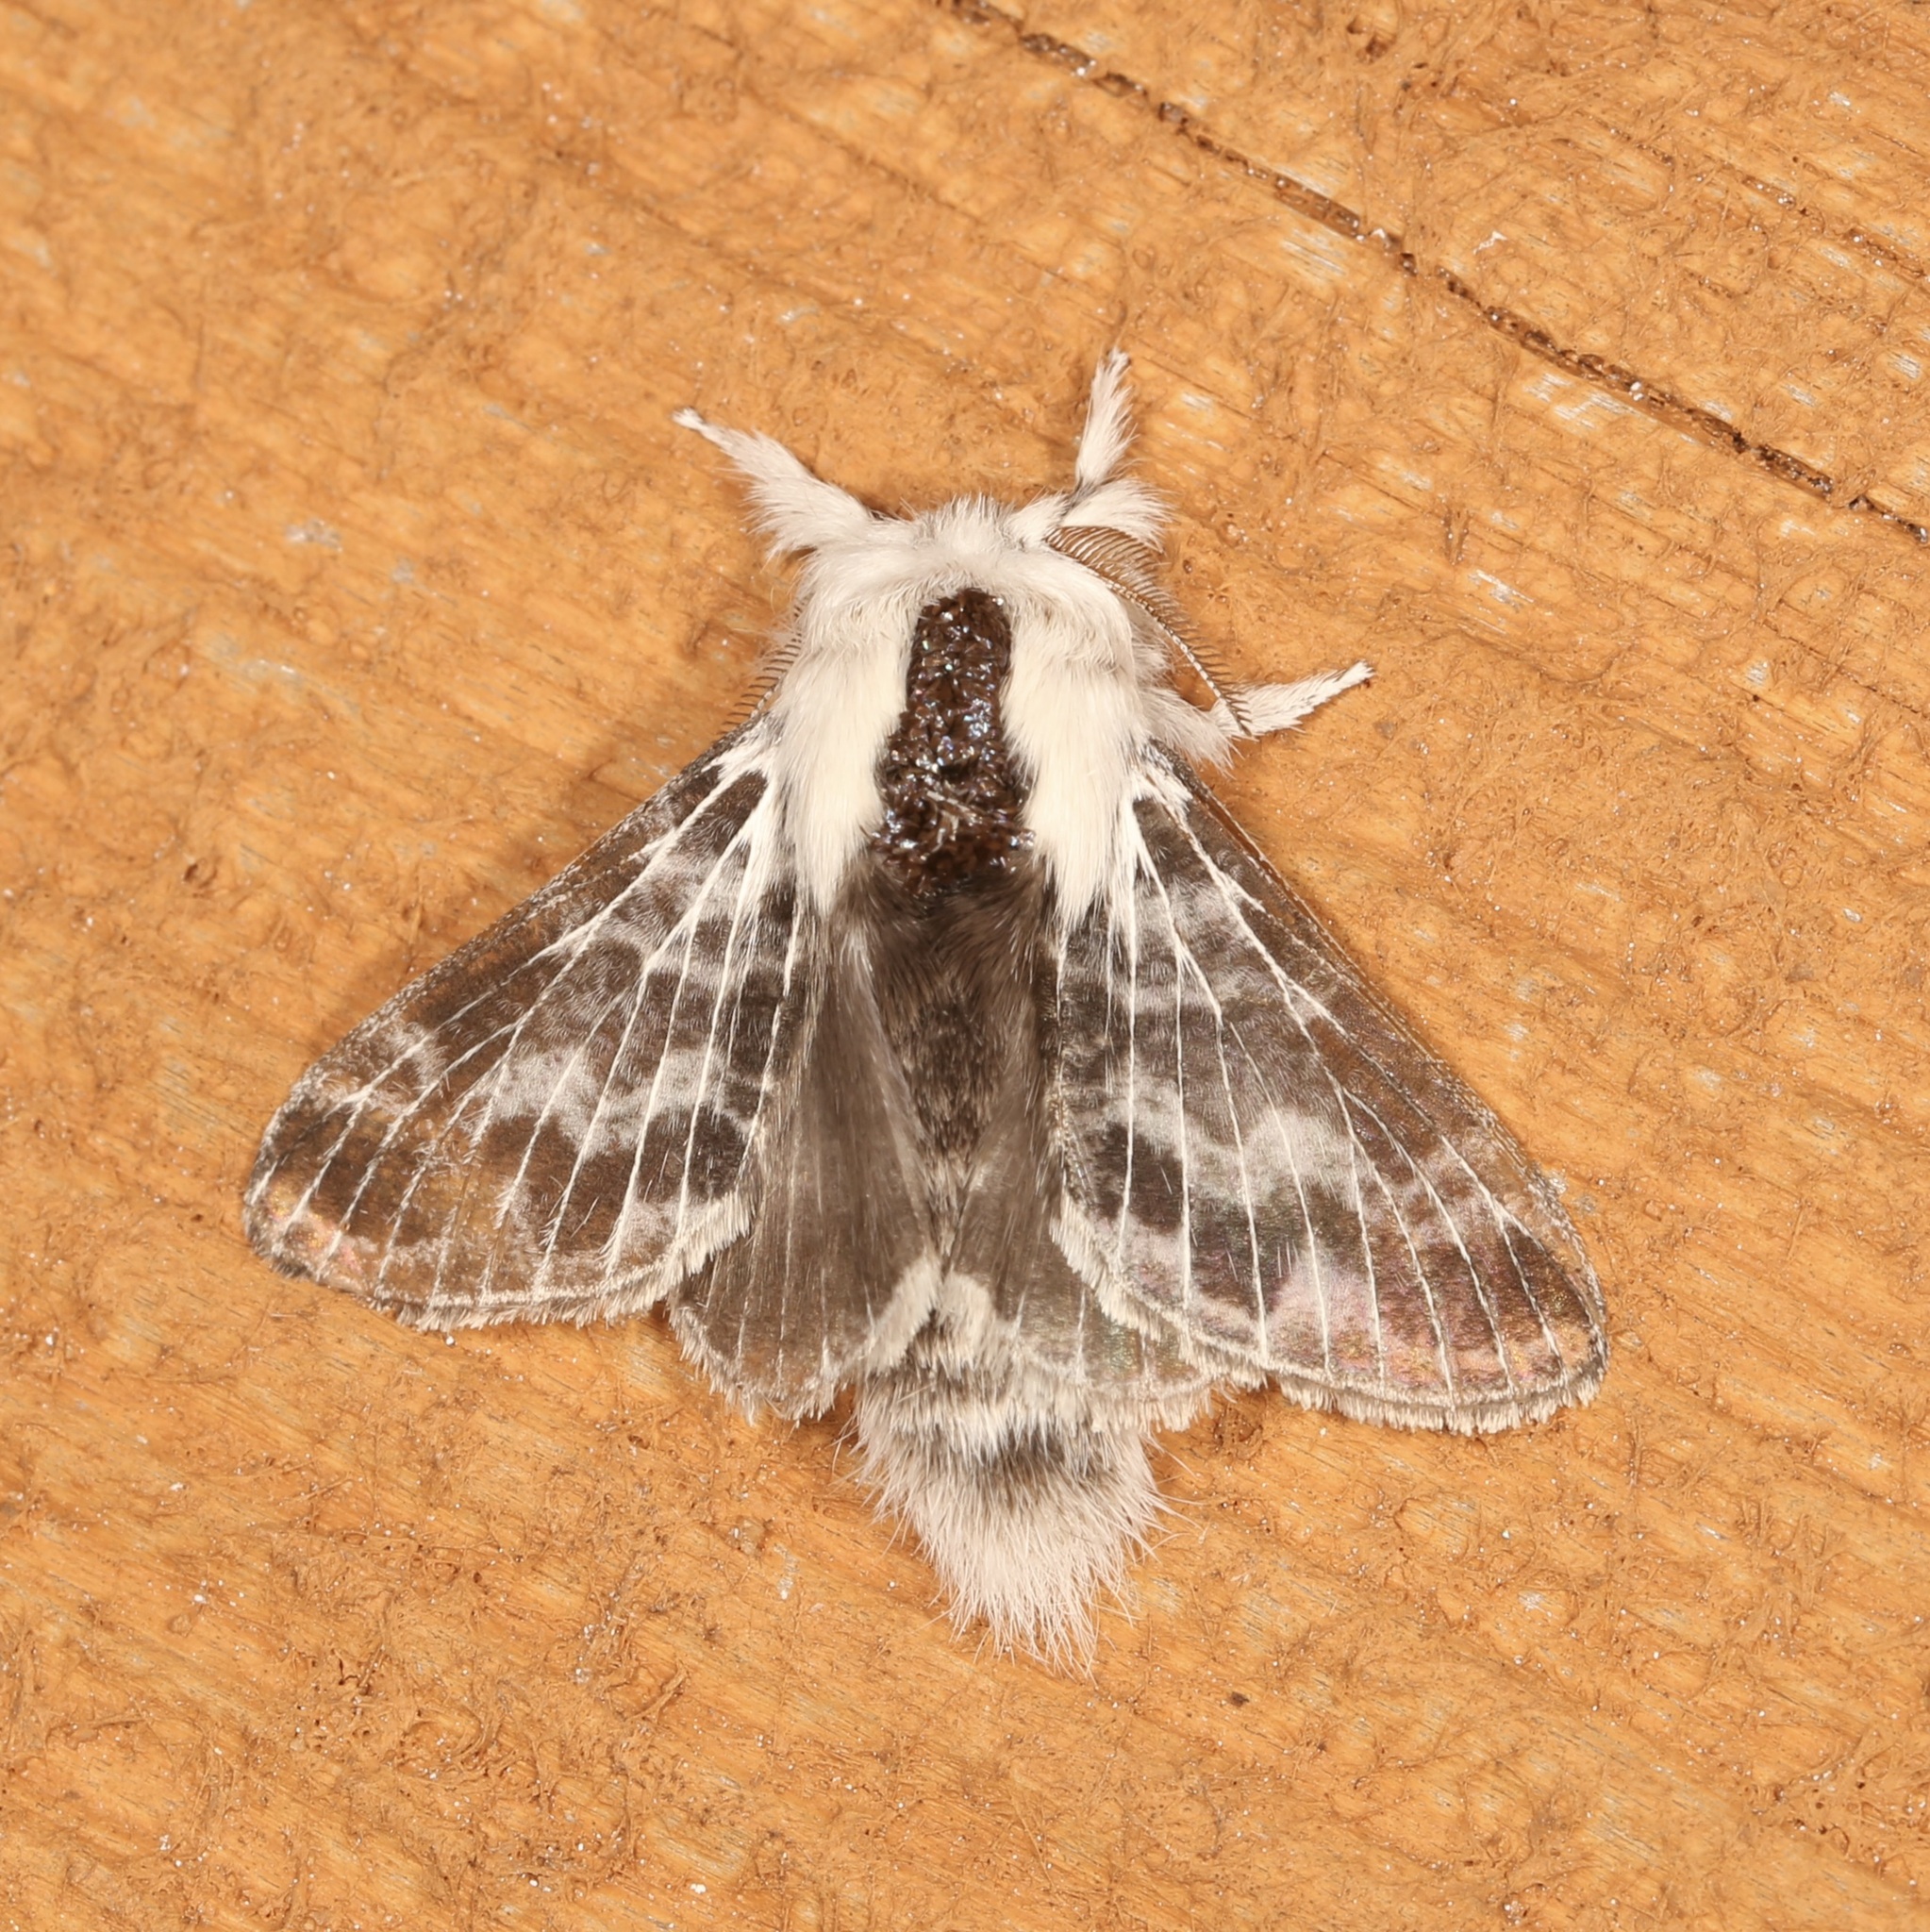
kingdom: Animalia
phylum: Arthropoda
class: Insecta
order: Lepidoptera
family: Lasiocampidae
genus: Tolype
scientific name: Tolype notialis
